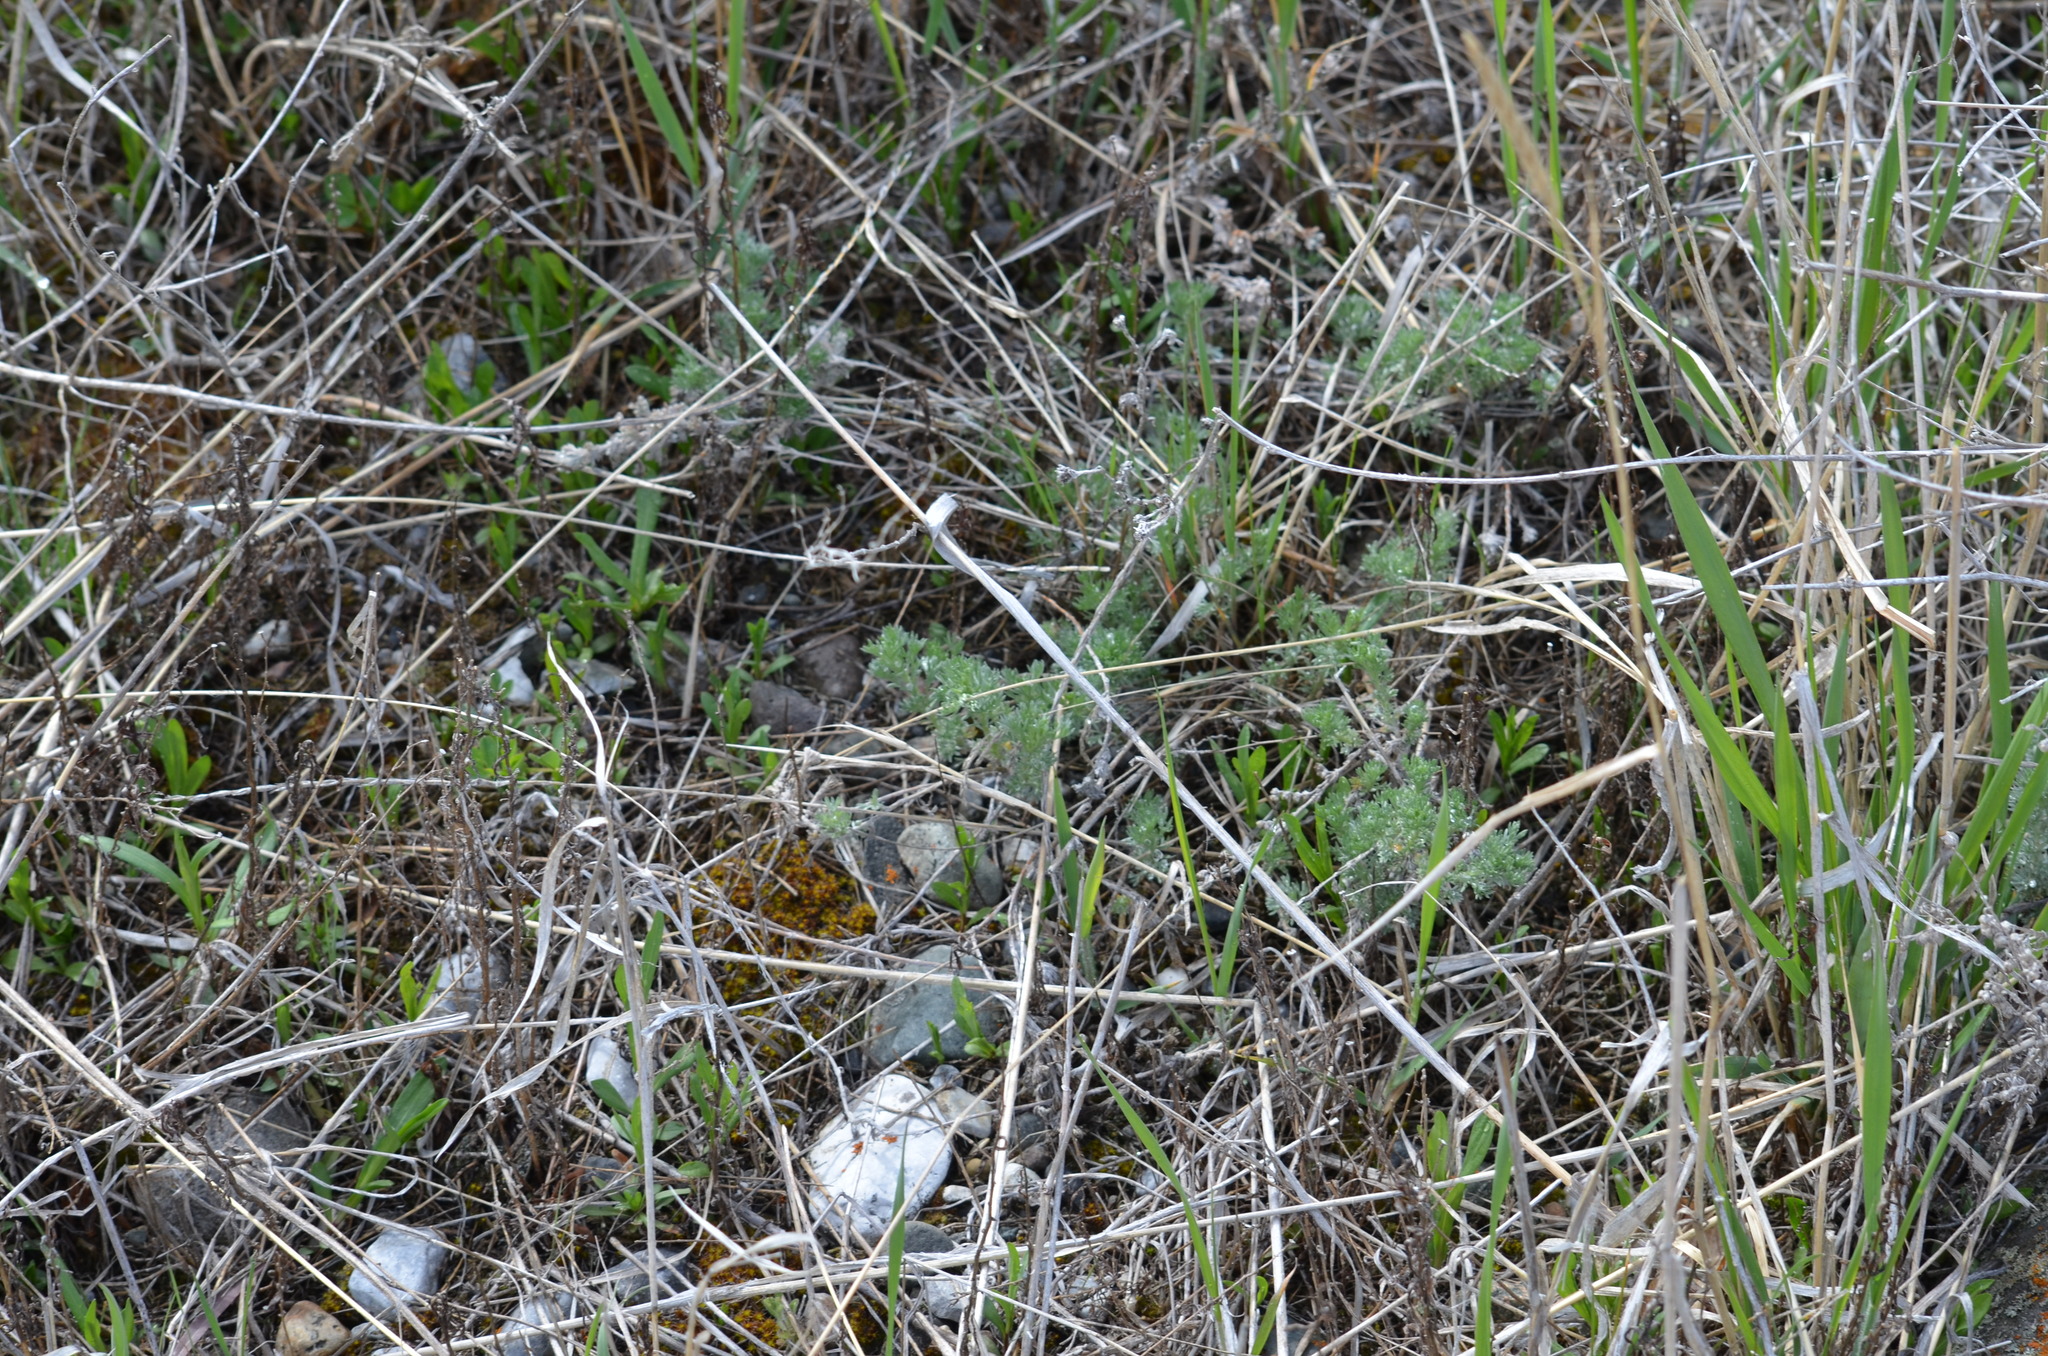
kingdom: Plantae
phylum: Tracheophyta
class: Magnoliopsida
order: Asterales
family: Asteraceae
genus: Artemisia
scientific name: Artemisia frigida
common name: Prairie sagewort
